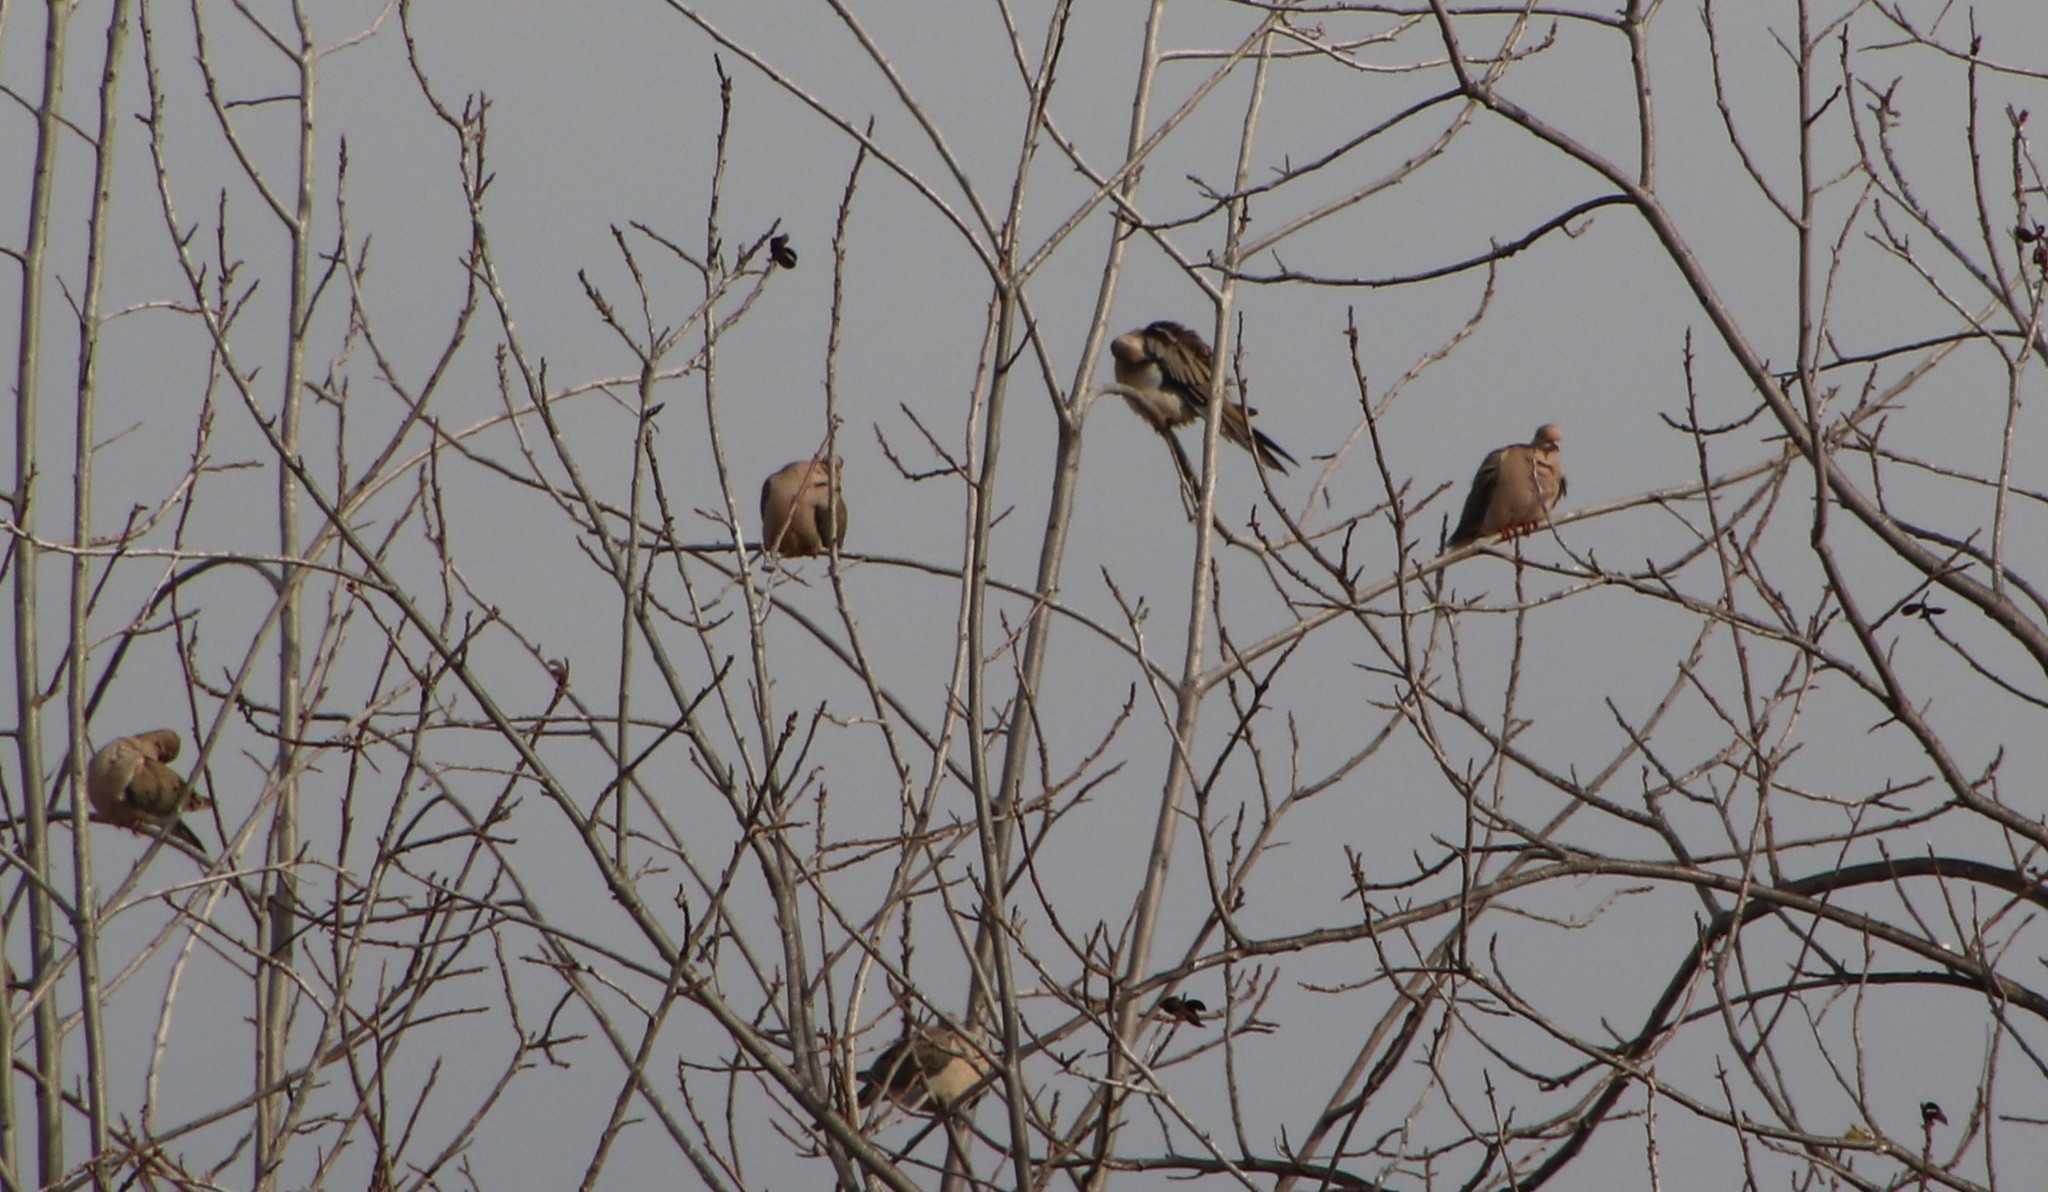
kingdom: Animalia
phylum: Chordata
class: Aves
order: Columbiformes
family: Columbidae
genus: Zenaida
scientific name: Zenaida macroura
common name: Mourning dove
